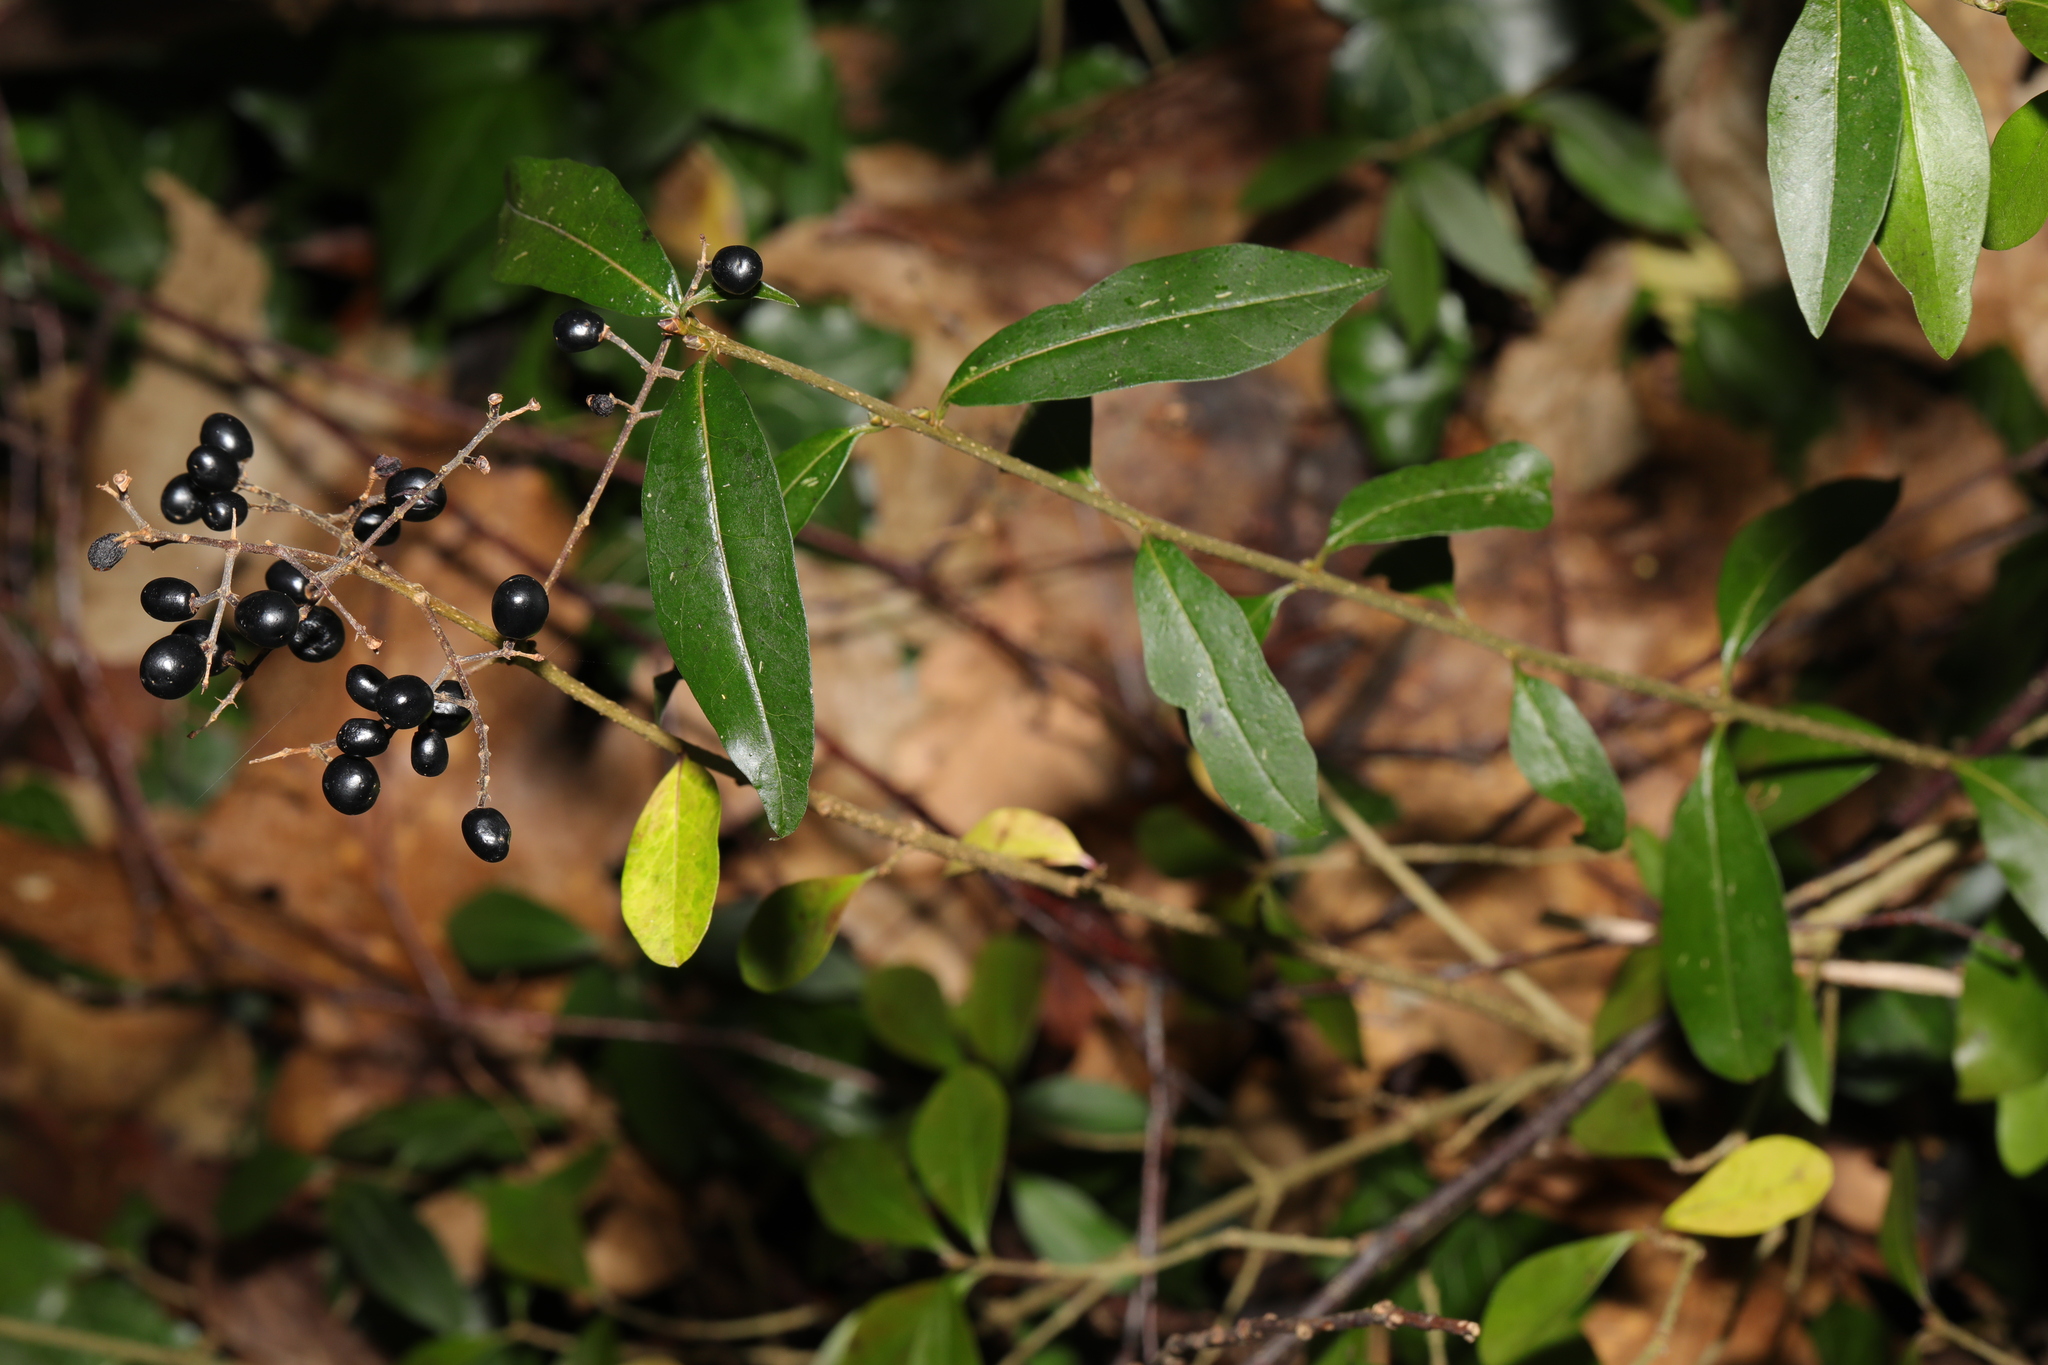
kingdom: Plantae
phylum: Tracheophyta
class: Magnoliopsida
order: Lamiales
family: Oleaceae
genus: Ligustrum
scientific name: Ligustrum vulgare
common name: Wild privet
